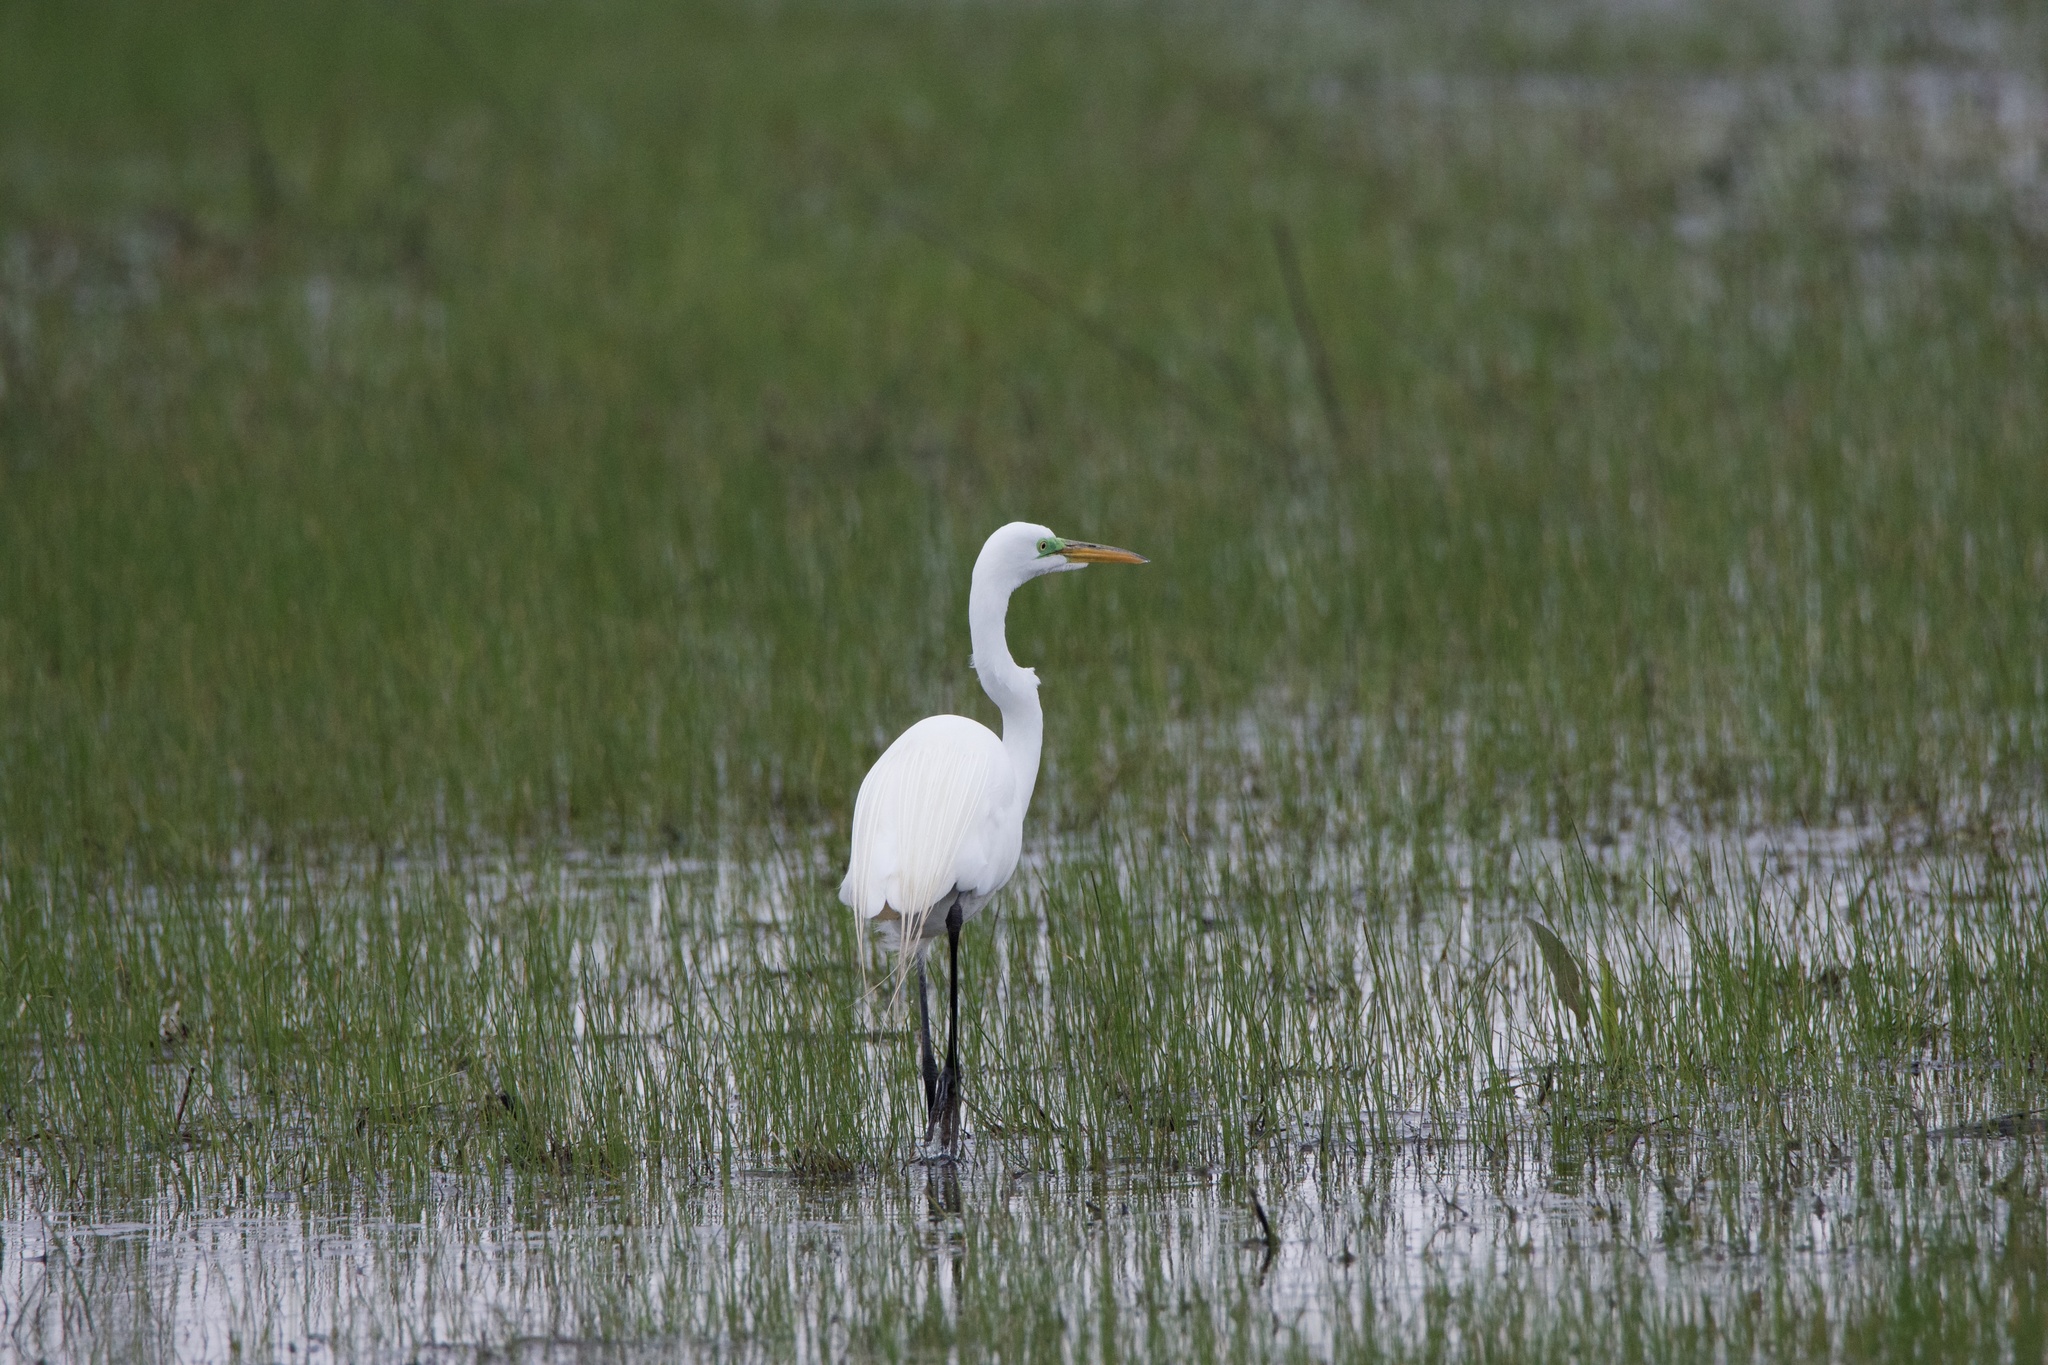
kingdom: Animalia
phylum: Chordata
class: Aves
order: Pelecaniformes
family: Ardeidae
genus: Ardea
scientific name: Ardea alba
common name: Great egret
